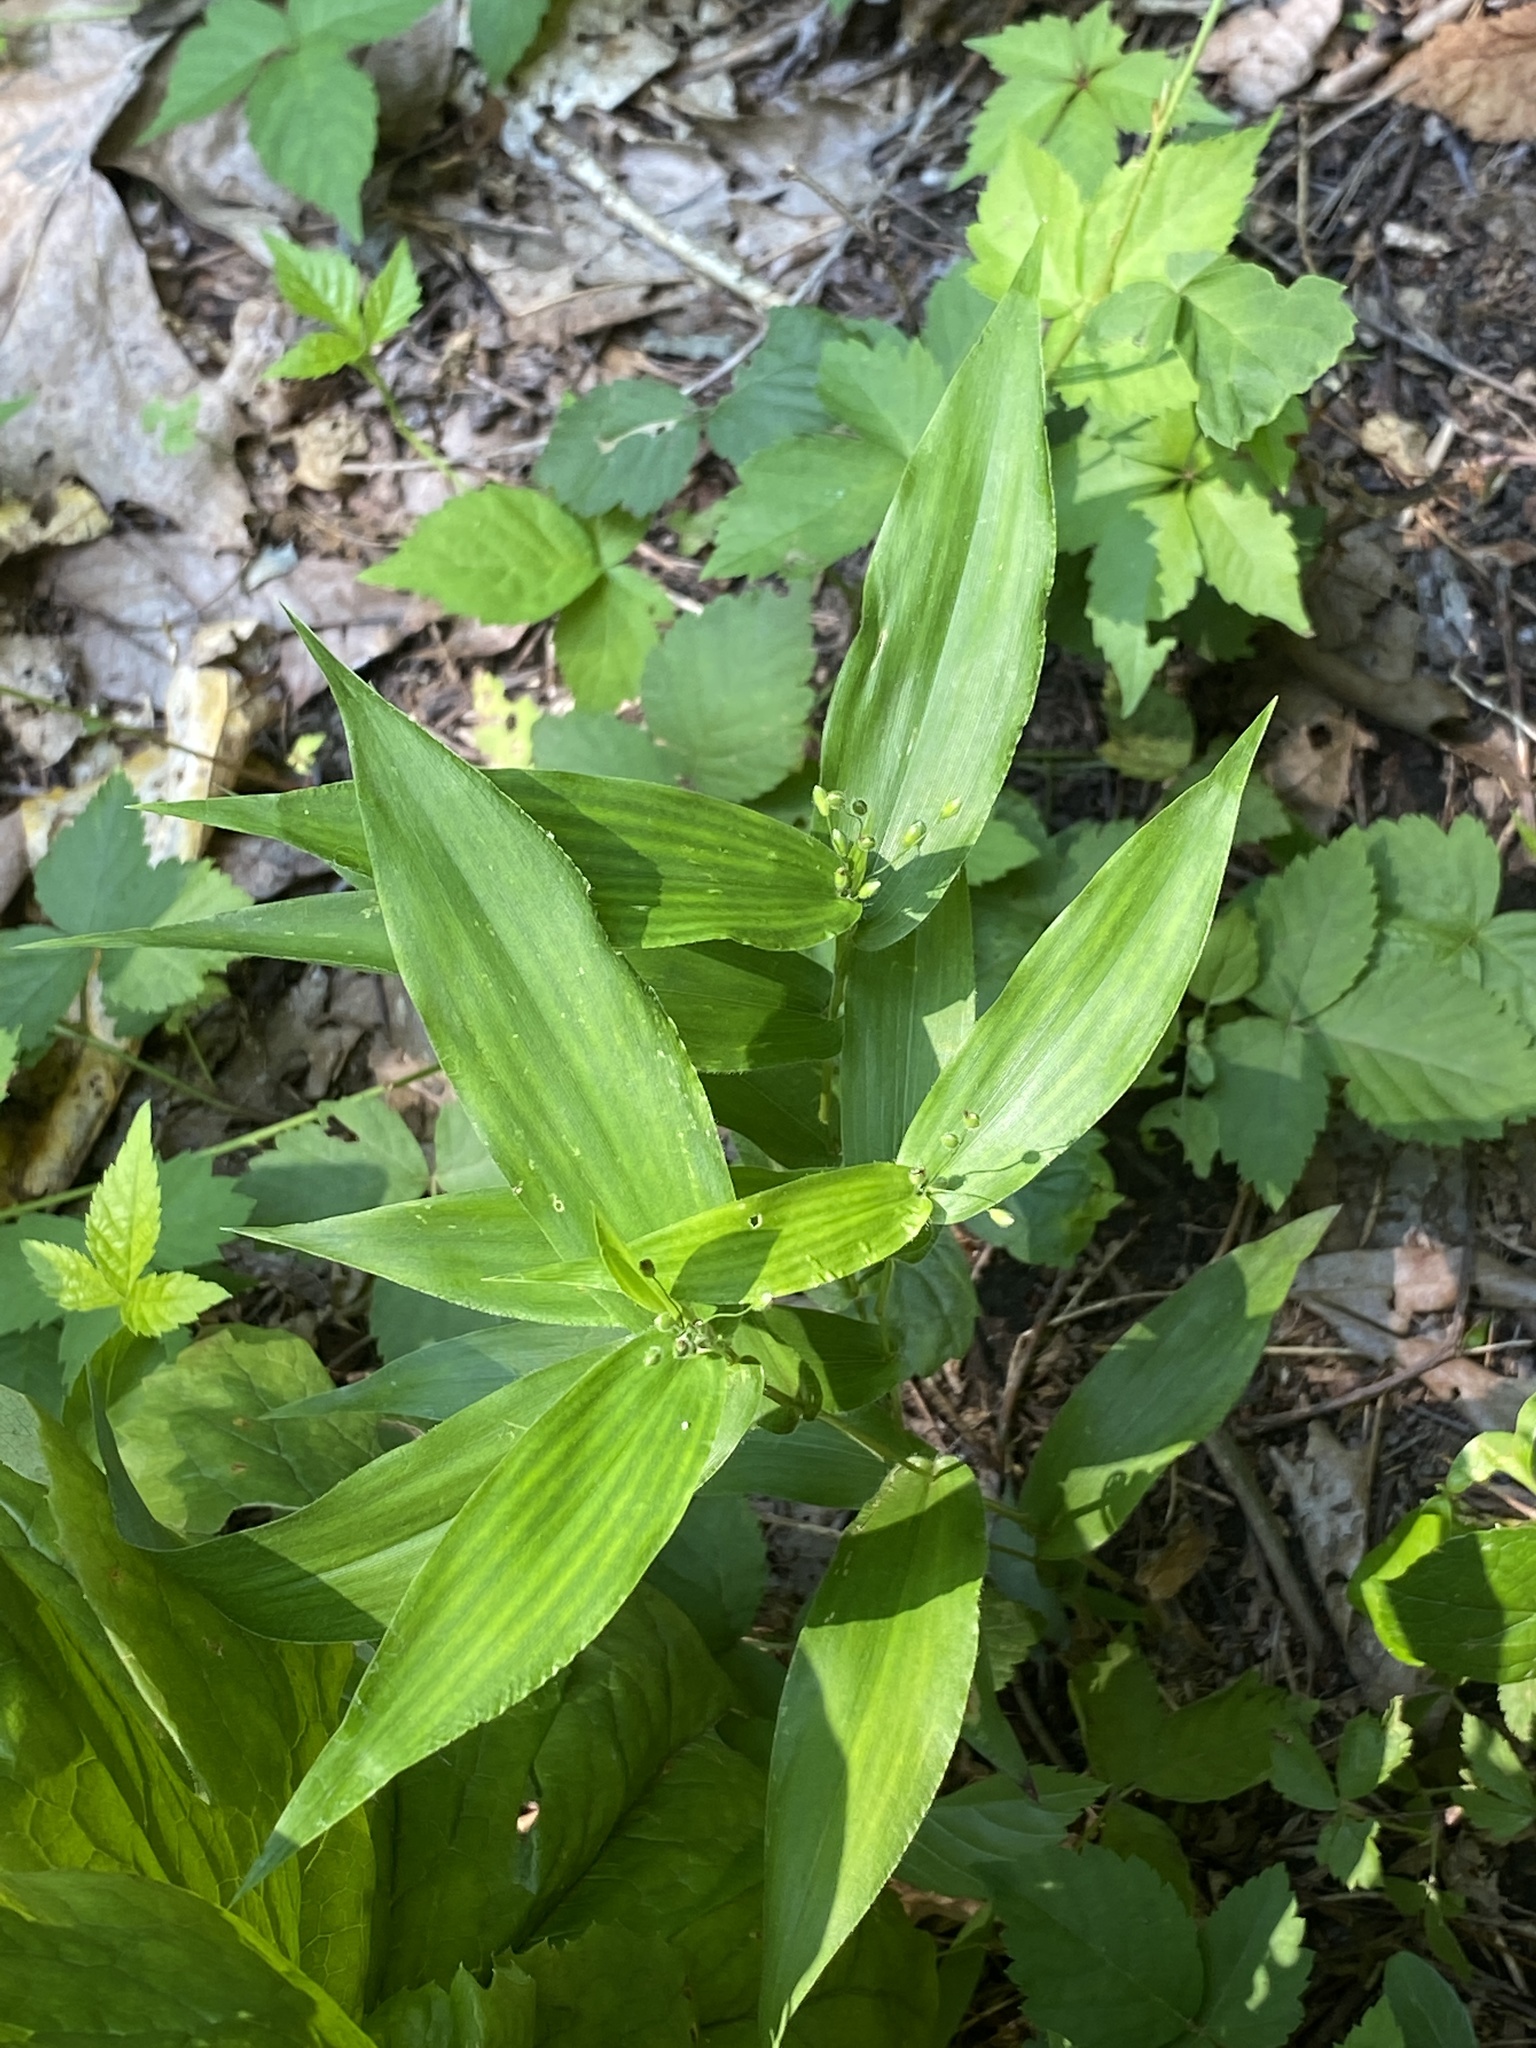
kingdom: Plantae
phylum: Tracheophyta
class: Liliopsida
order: Poales
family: Poaceae
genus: Dichanthelium
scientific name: Dichanthelium clandestinum
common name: Deer-tongue grass
